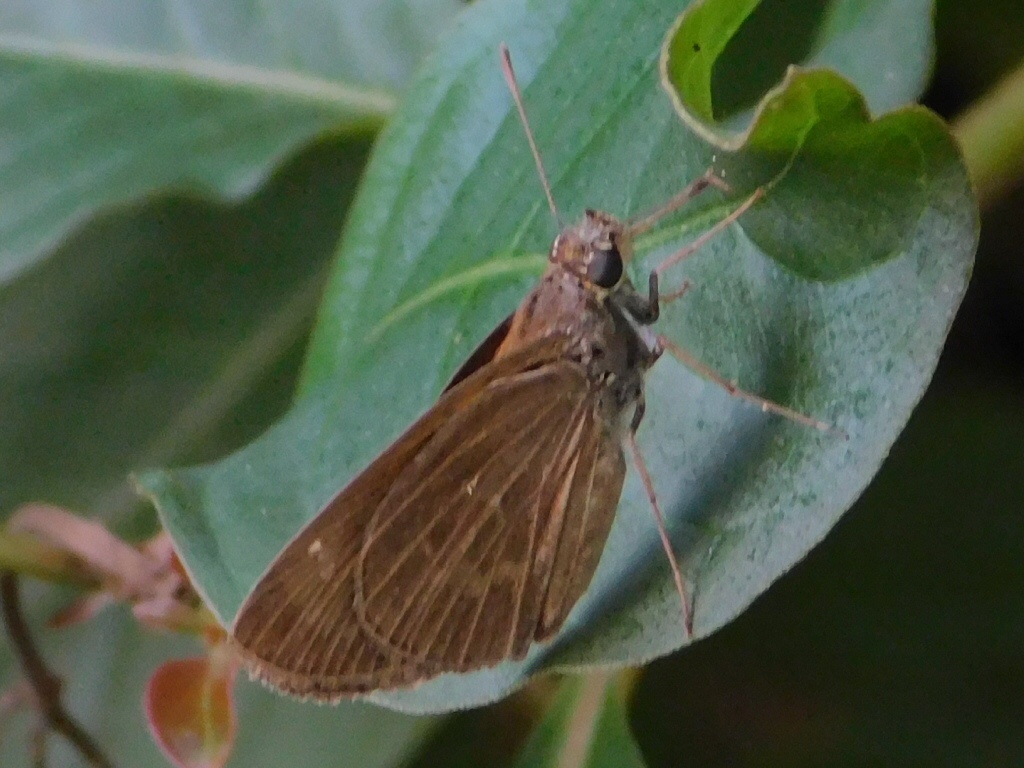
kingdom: Animalia
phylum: Arthropoda
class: Insecta
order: Lepidoptera
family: Hesperiidae
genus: Cymaenes
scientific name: Cymaenes tripunctus
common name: Dingy dotted skipper
